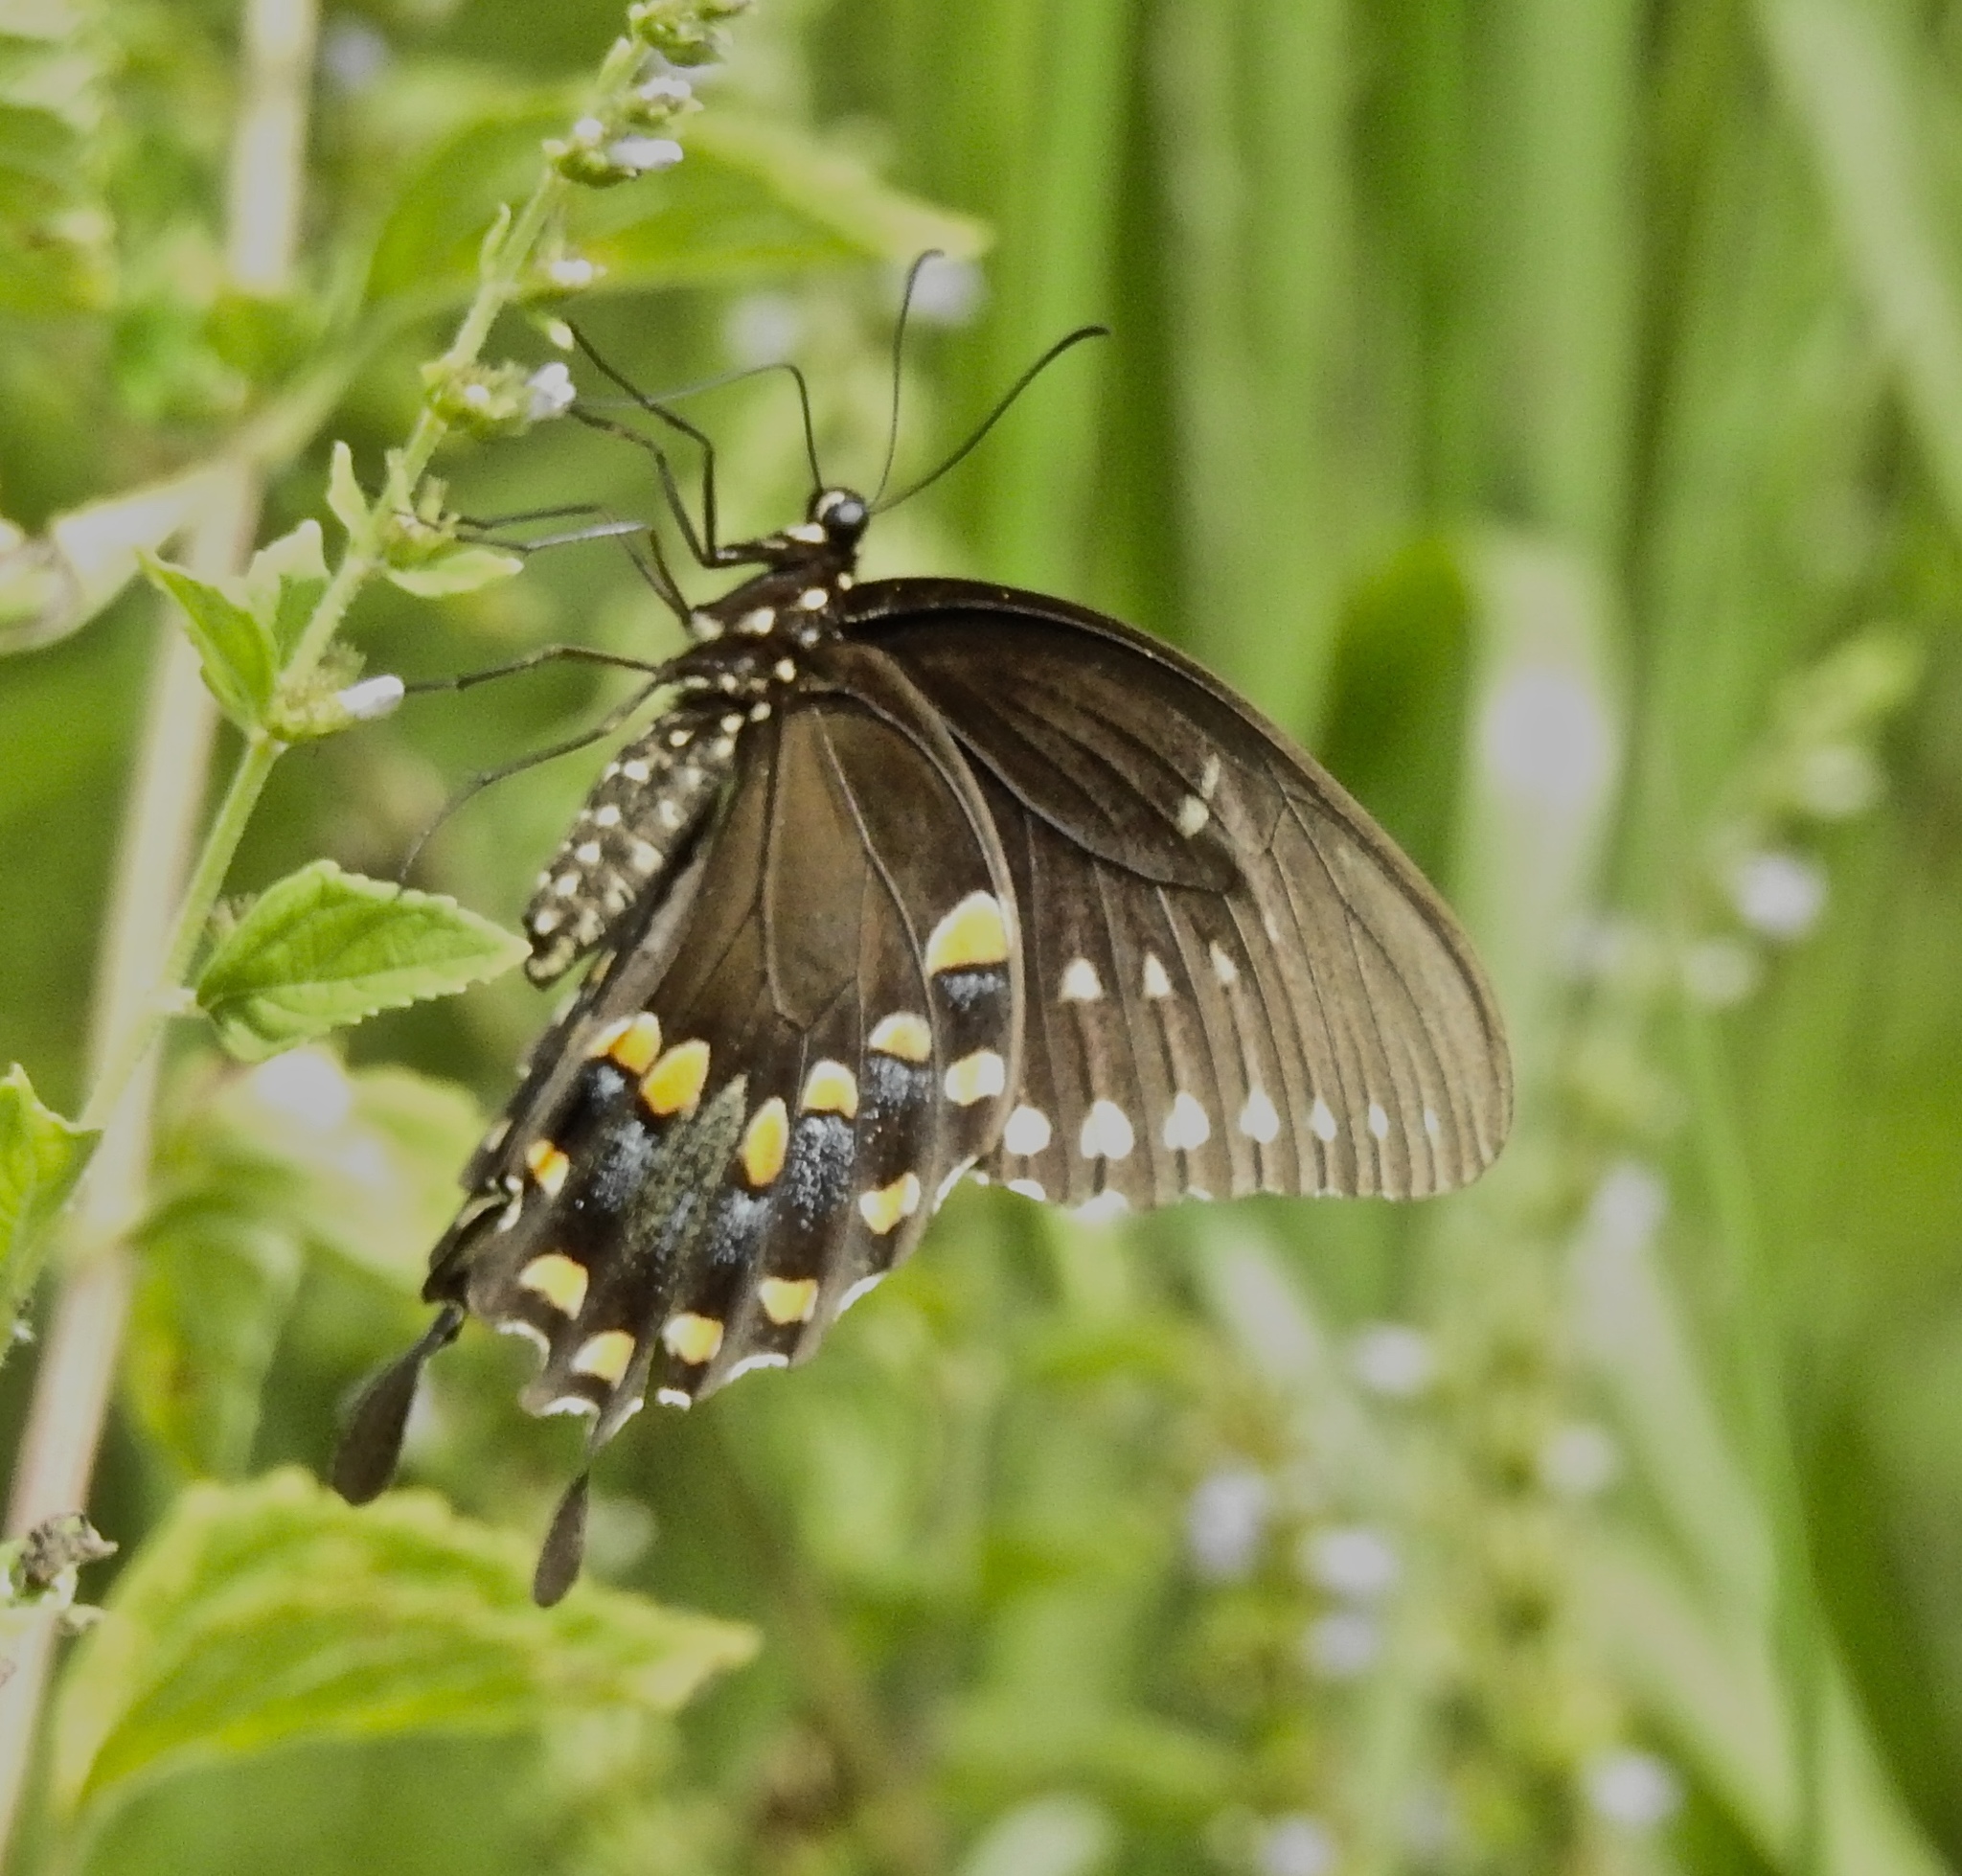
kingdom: Animalia
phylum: Arthropoda
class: Insecta
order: Lepidoptera
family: Papilionidae
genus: Papilio
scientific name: Papilio troilus
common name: Spicebush swallowtail
